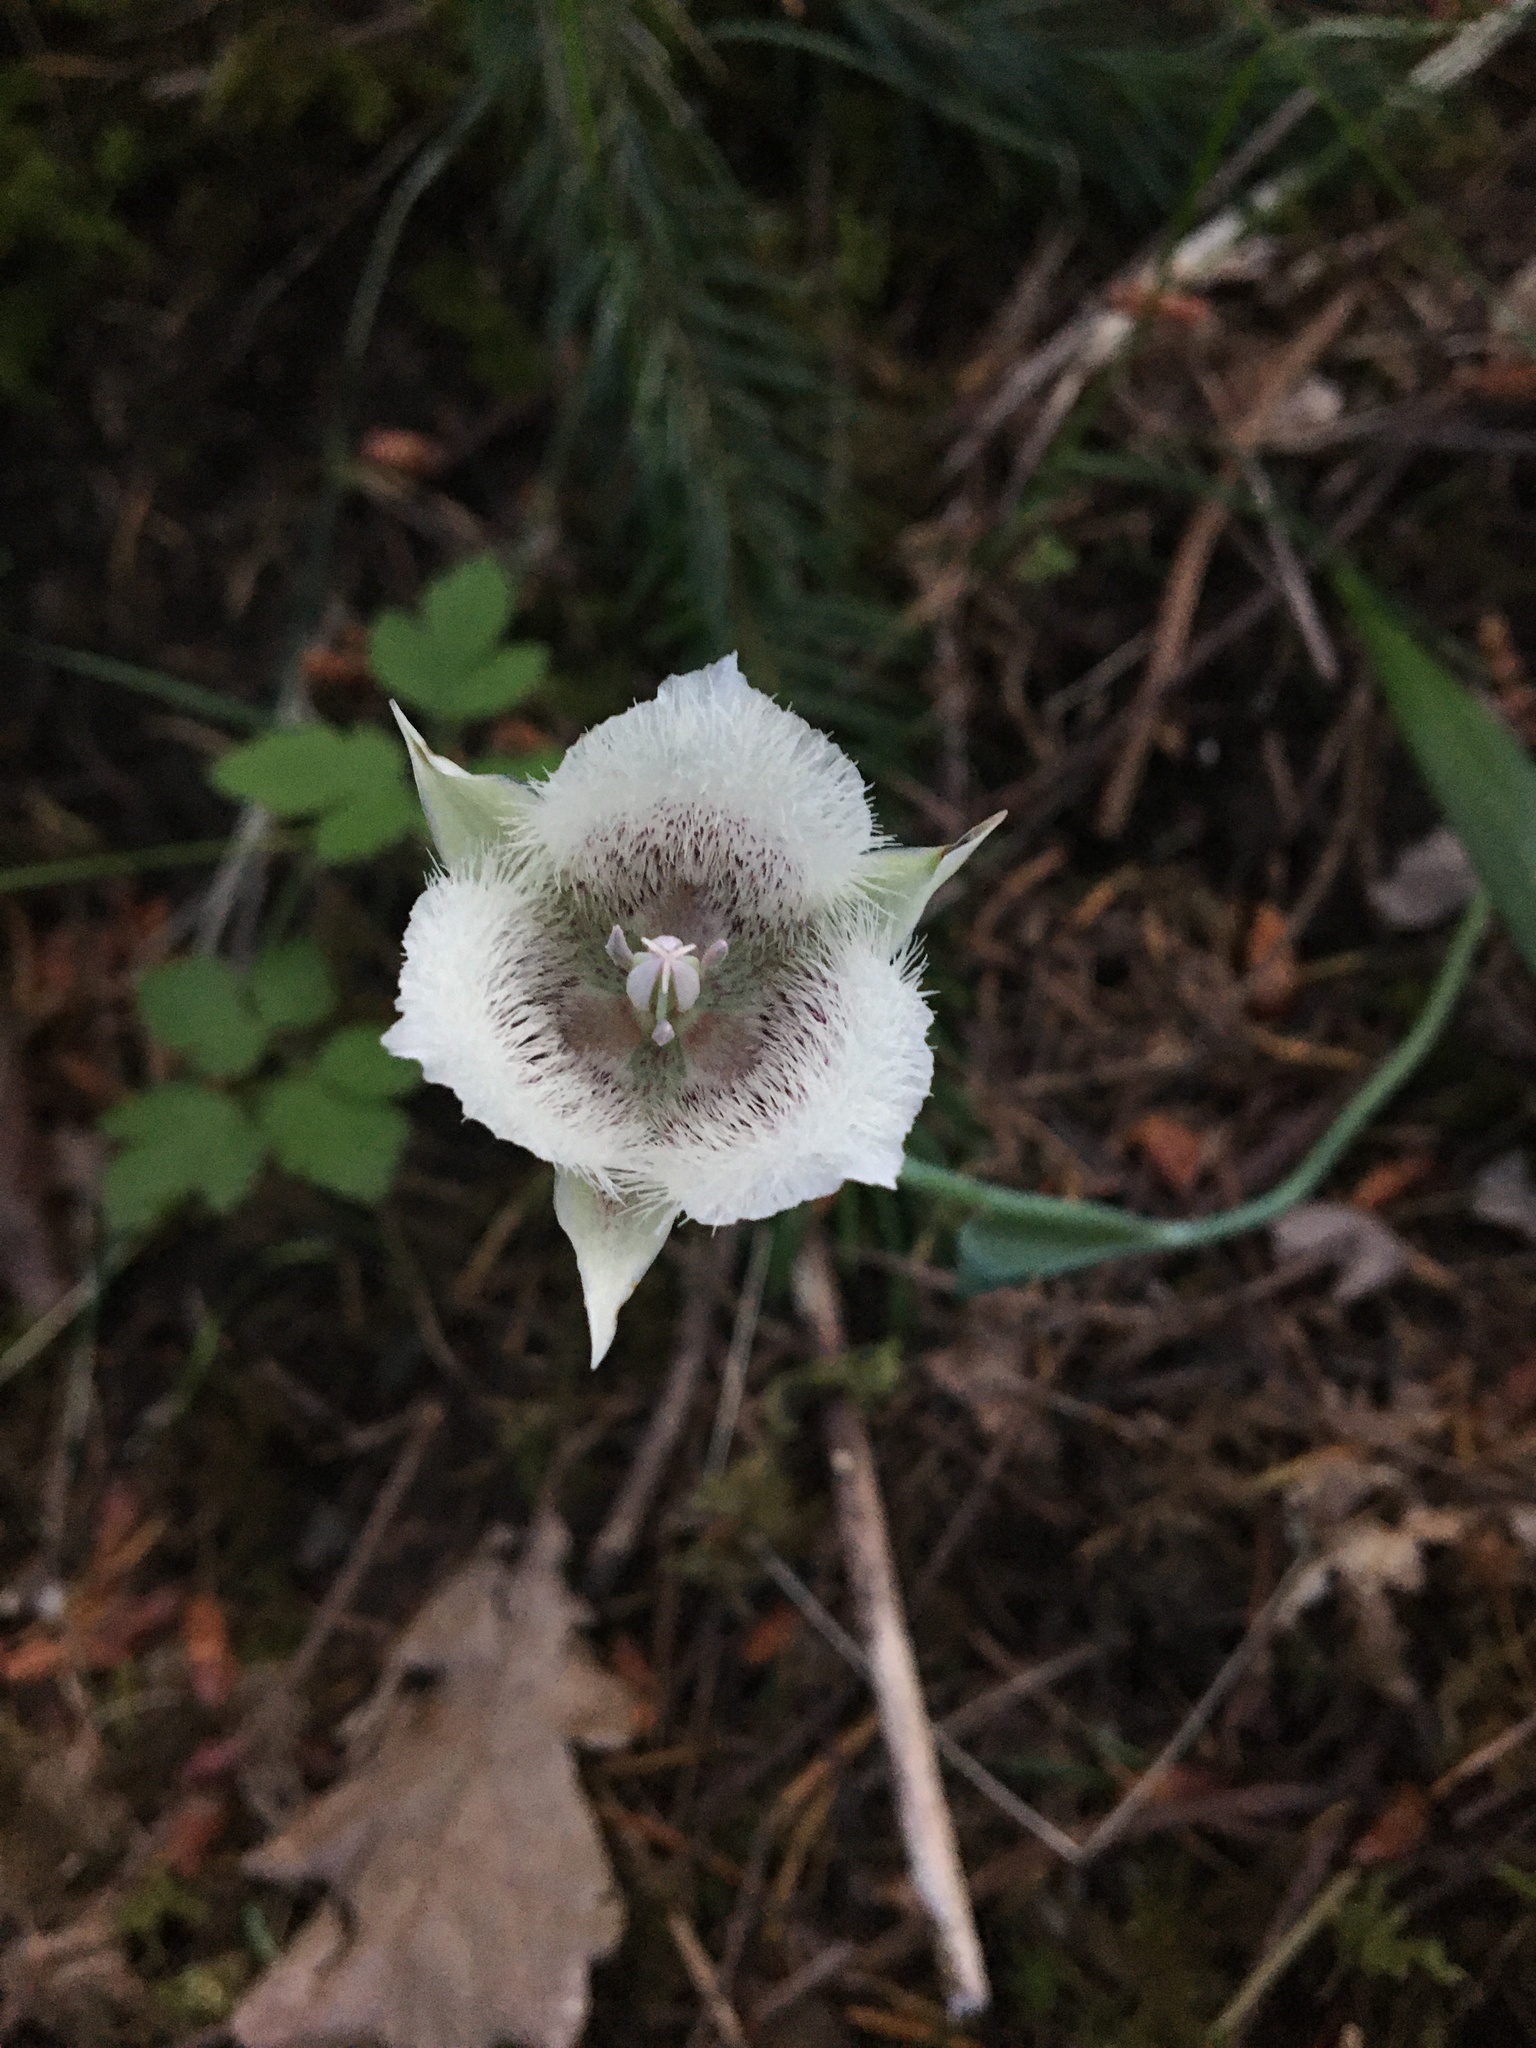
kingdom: Plantae
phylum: Tracheophyta
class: Liliopsida
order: Liliales
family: Liliaceae
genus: Calochortus
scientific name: Calochortus tolmiei
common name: Pussy-ears
